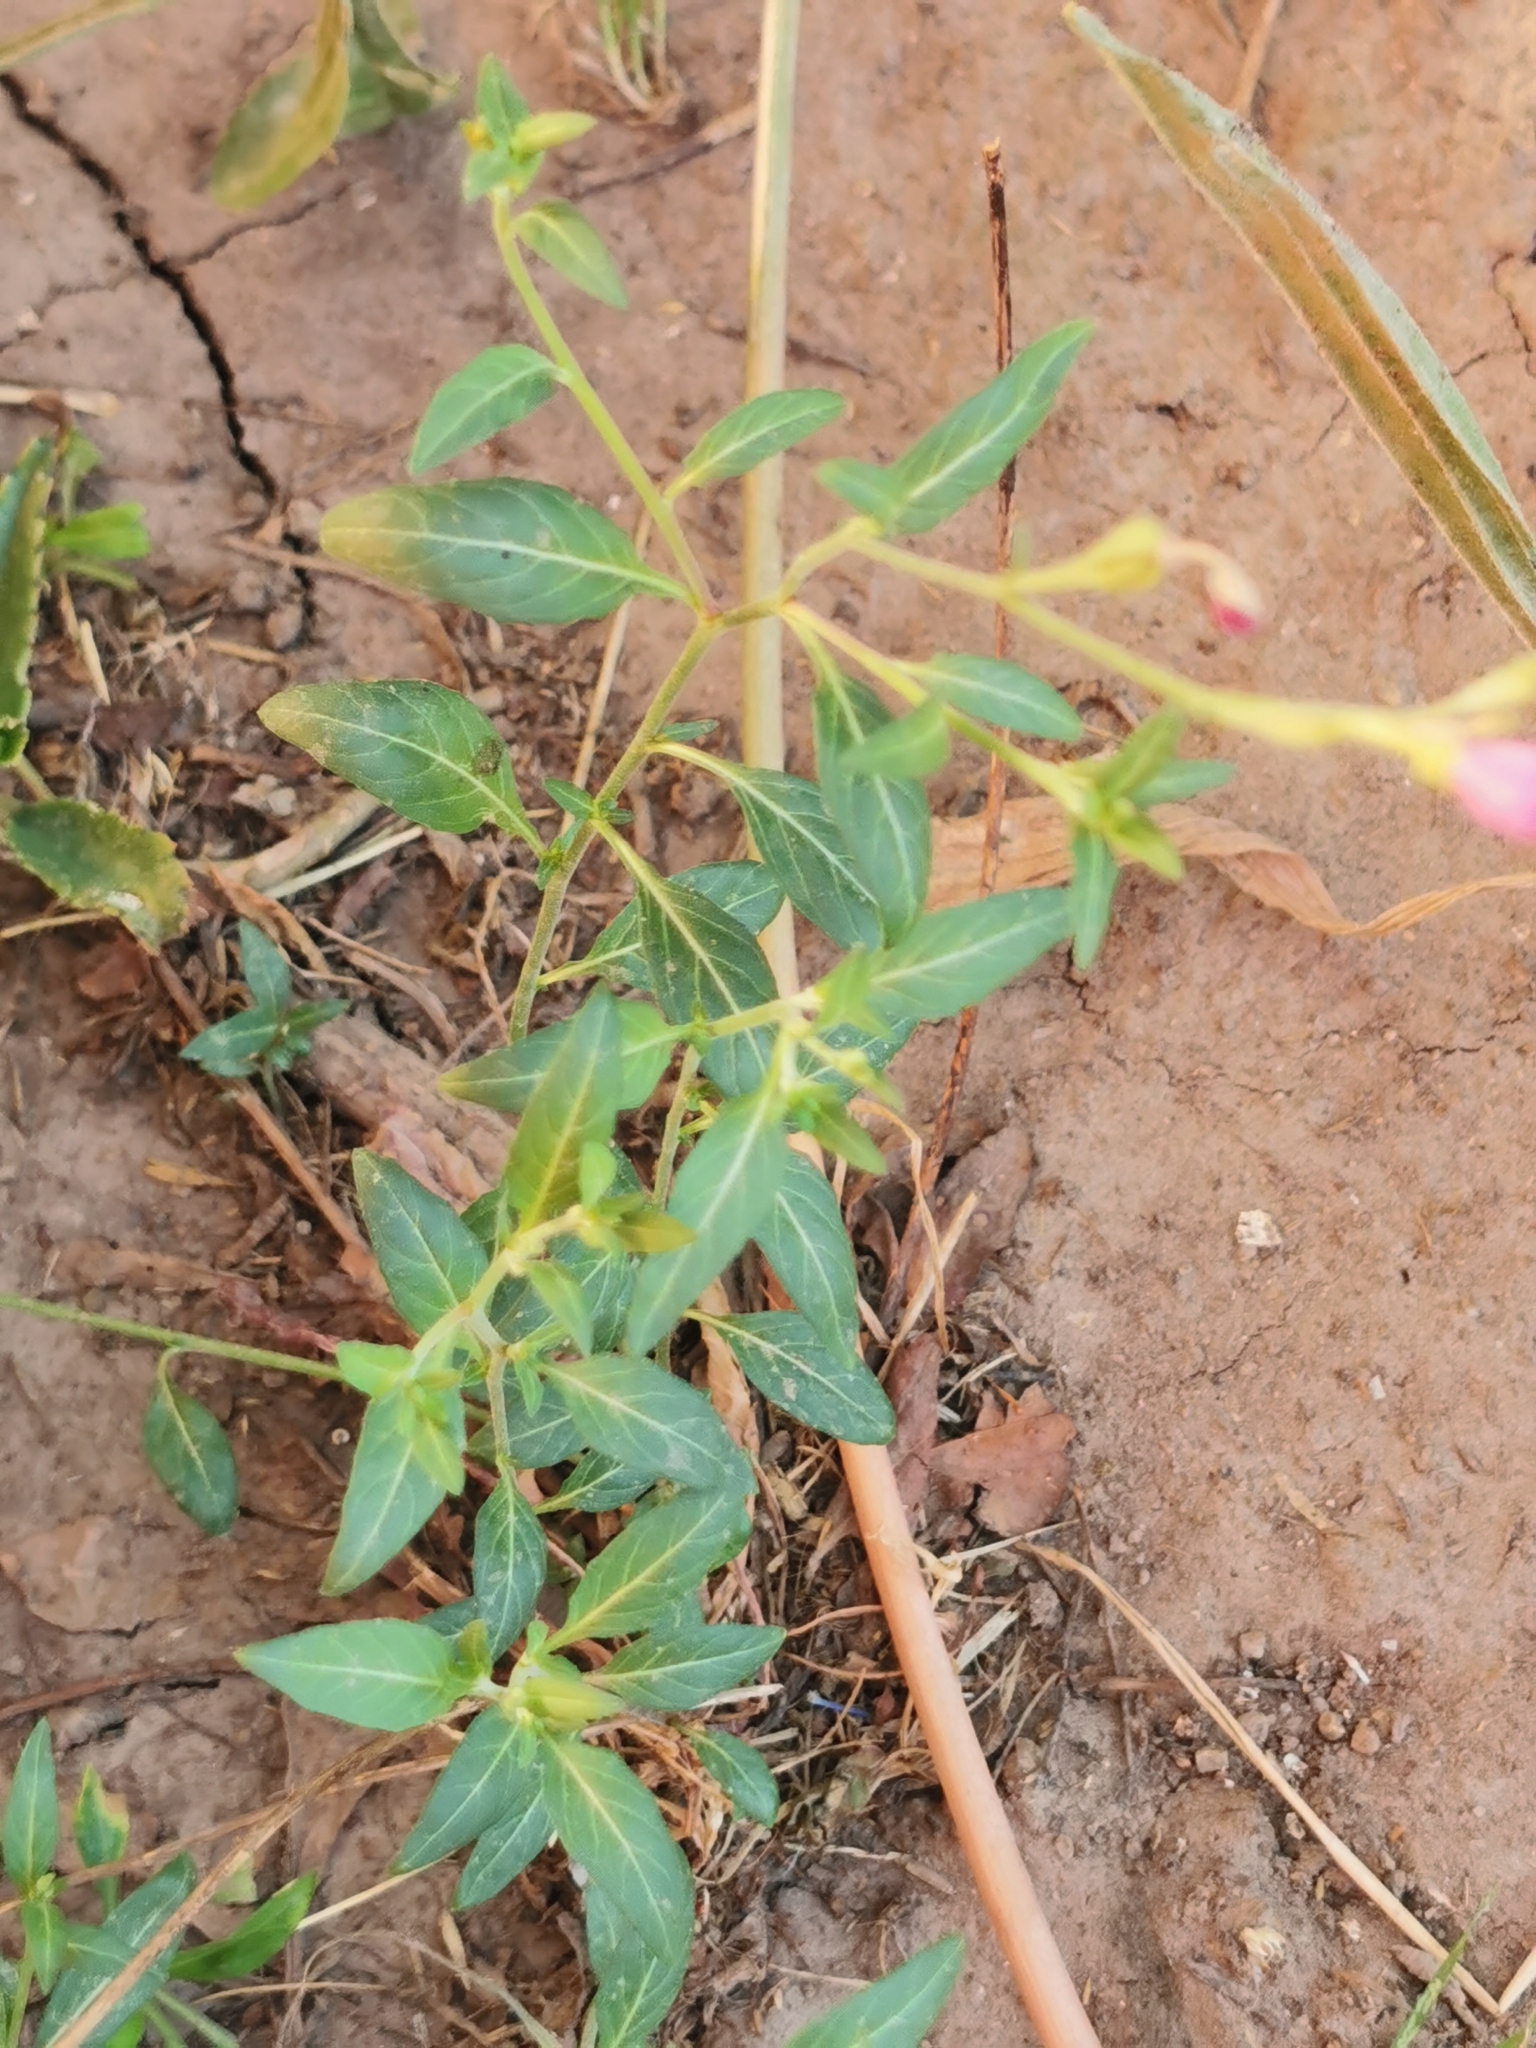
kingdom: Plantae
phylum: Tracheophyta
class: Magnoliopsida
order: Myrtales
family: Onagraceae
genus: Oenothera
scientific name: Oenothera rosea
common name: Rosy evening-primrose
